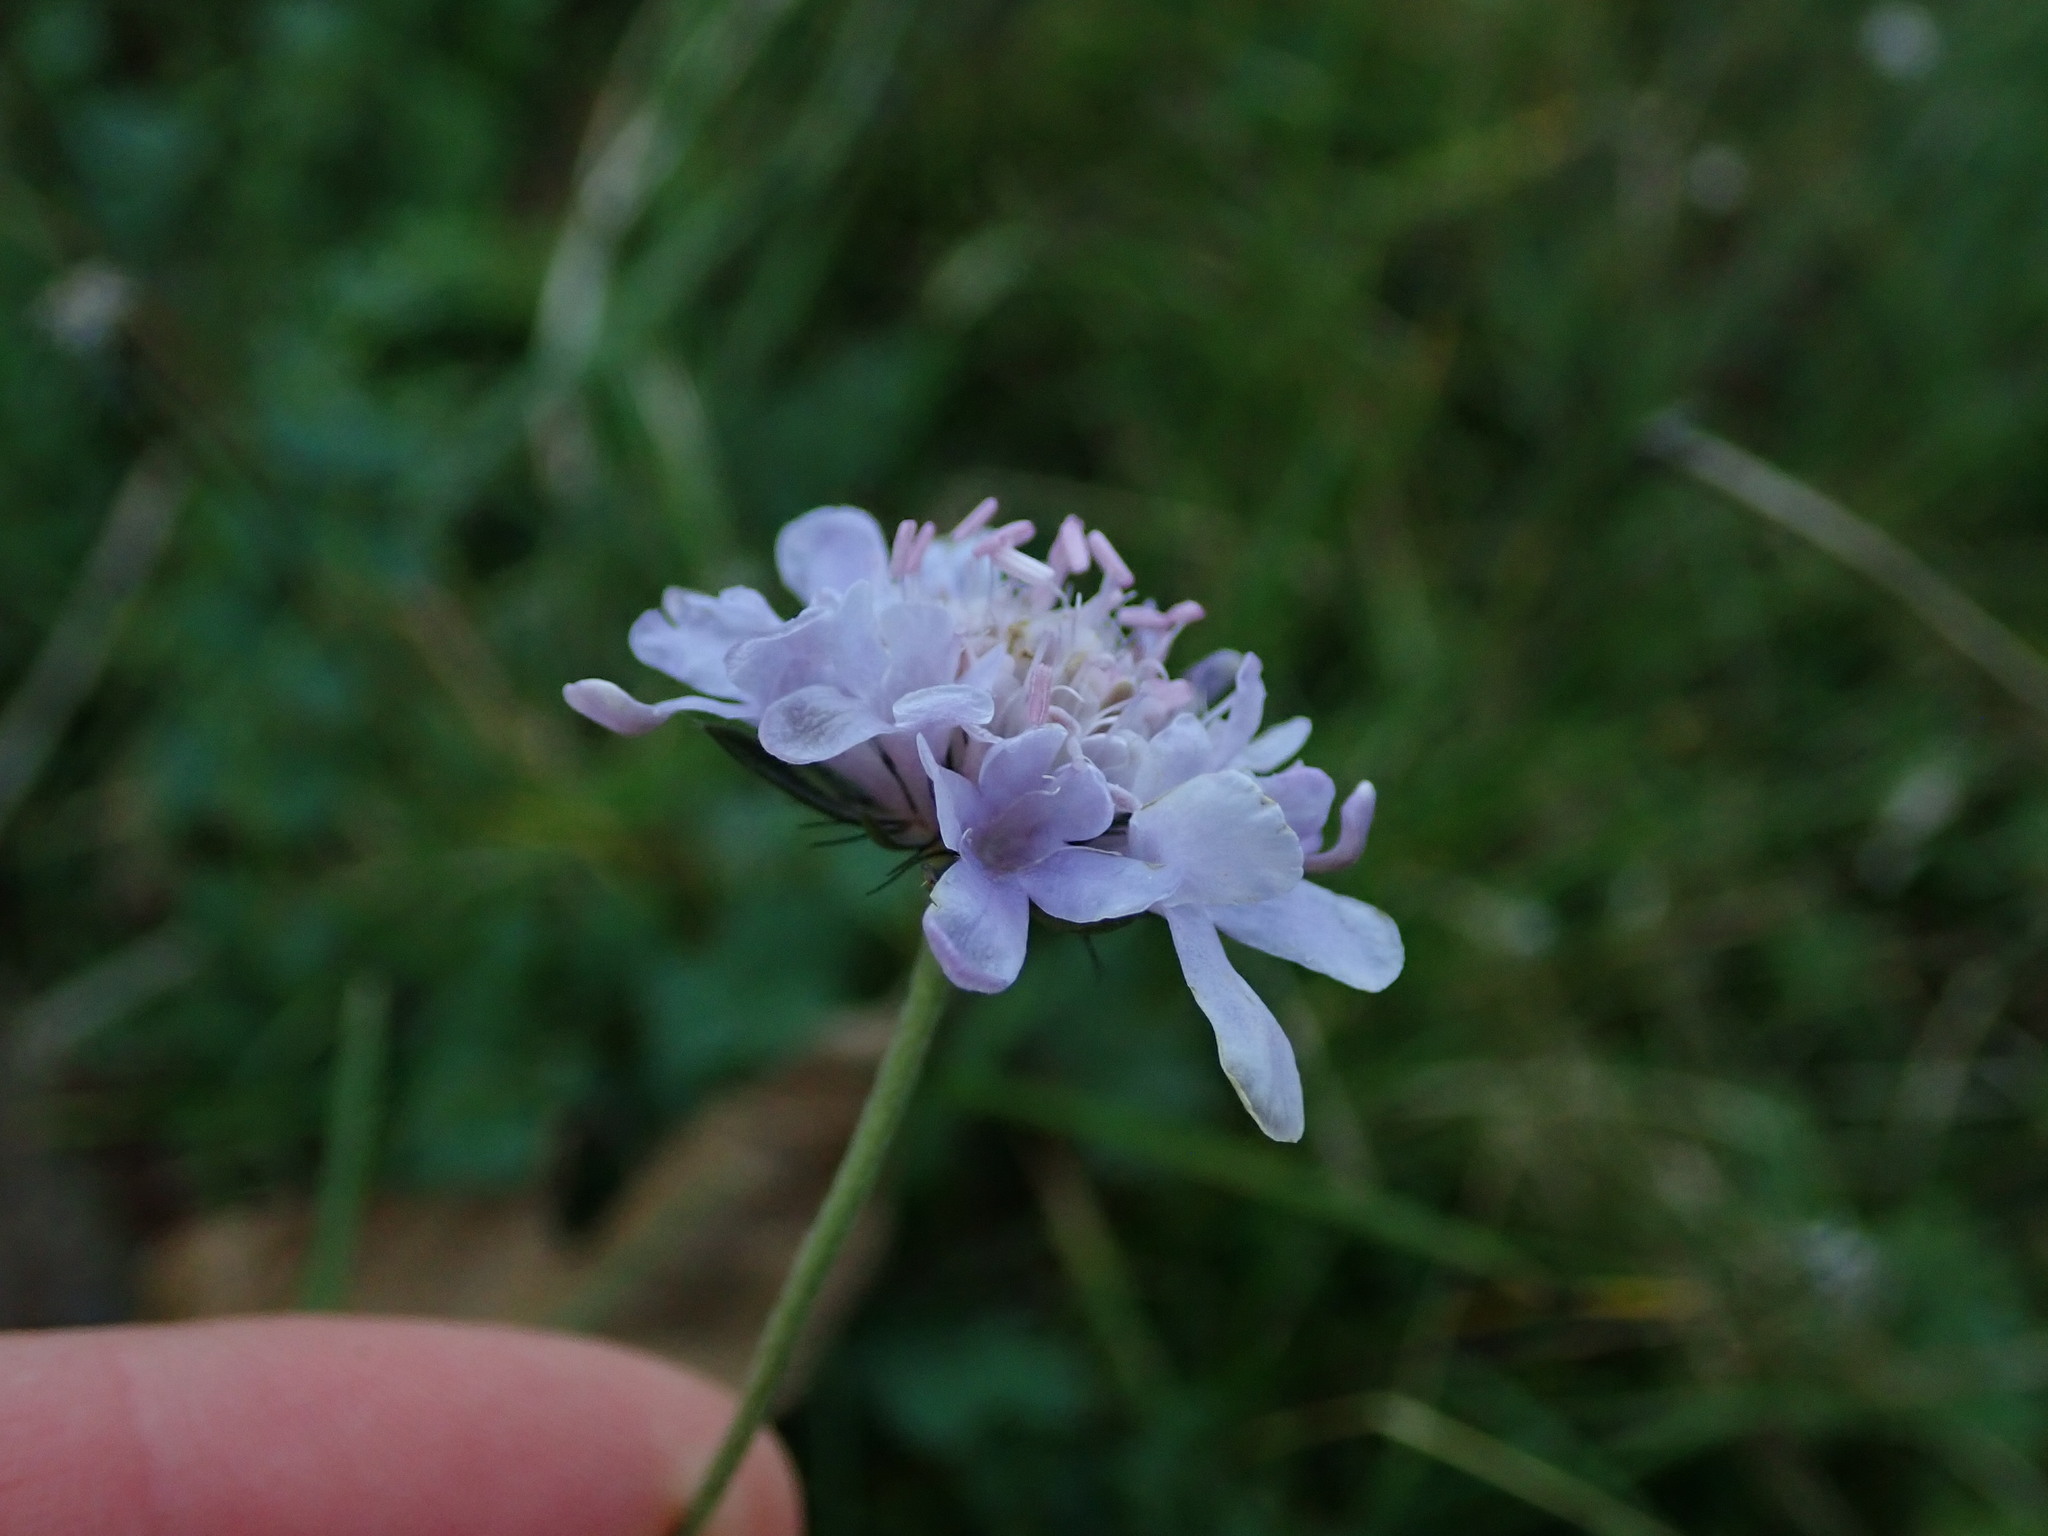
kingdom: Plantae
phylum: Tracheophyta
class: Magnoliopsida
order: Dipsacales
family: Caprifoliaceae
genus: Scabiosa
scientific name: Scabiosa columbaria
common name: Small scabious
